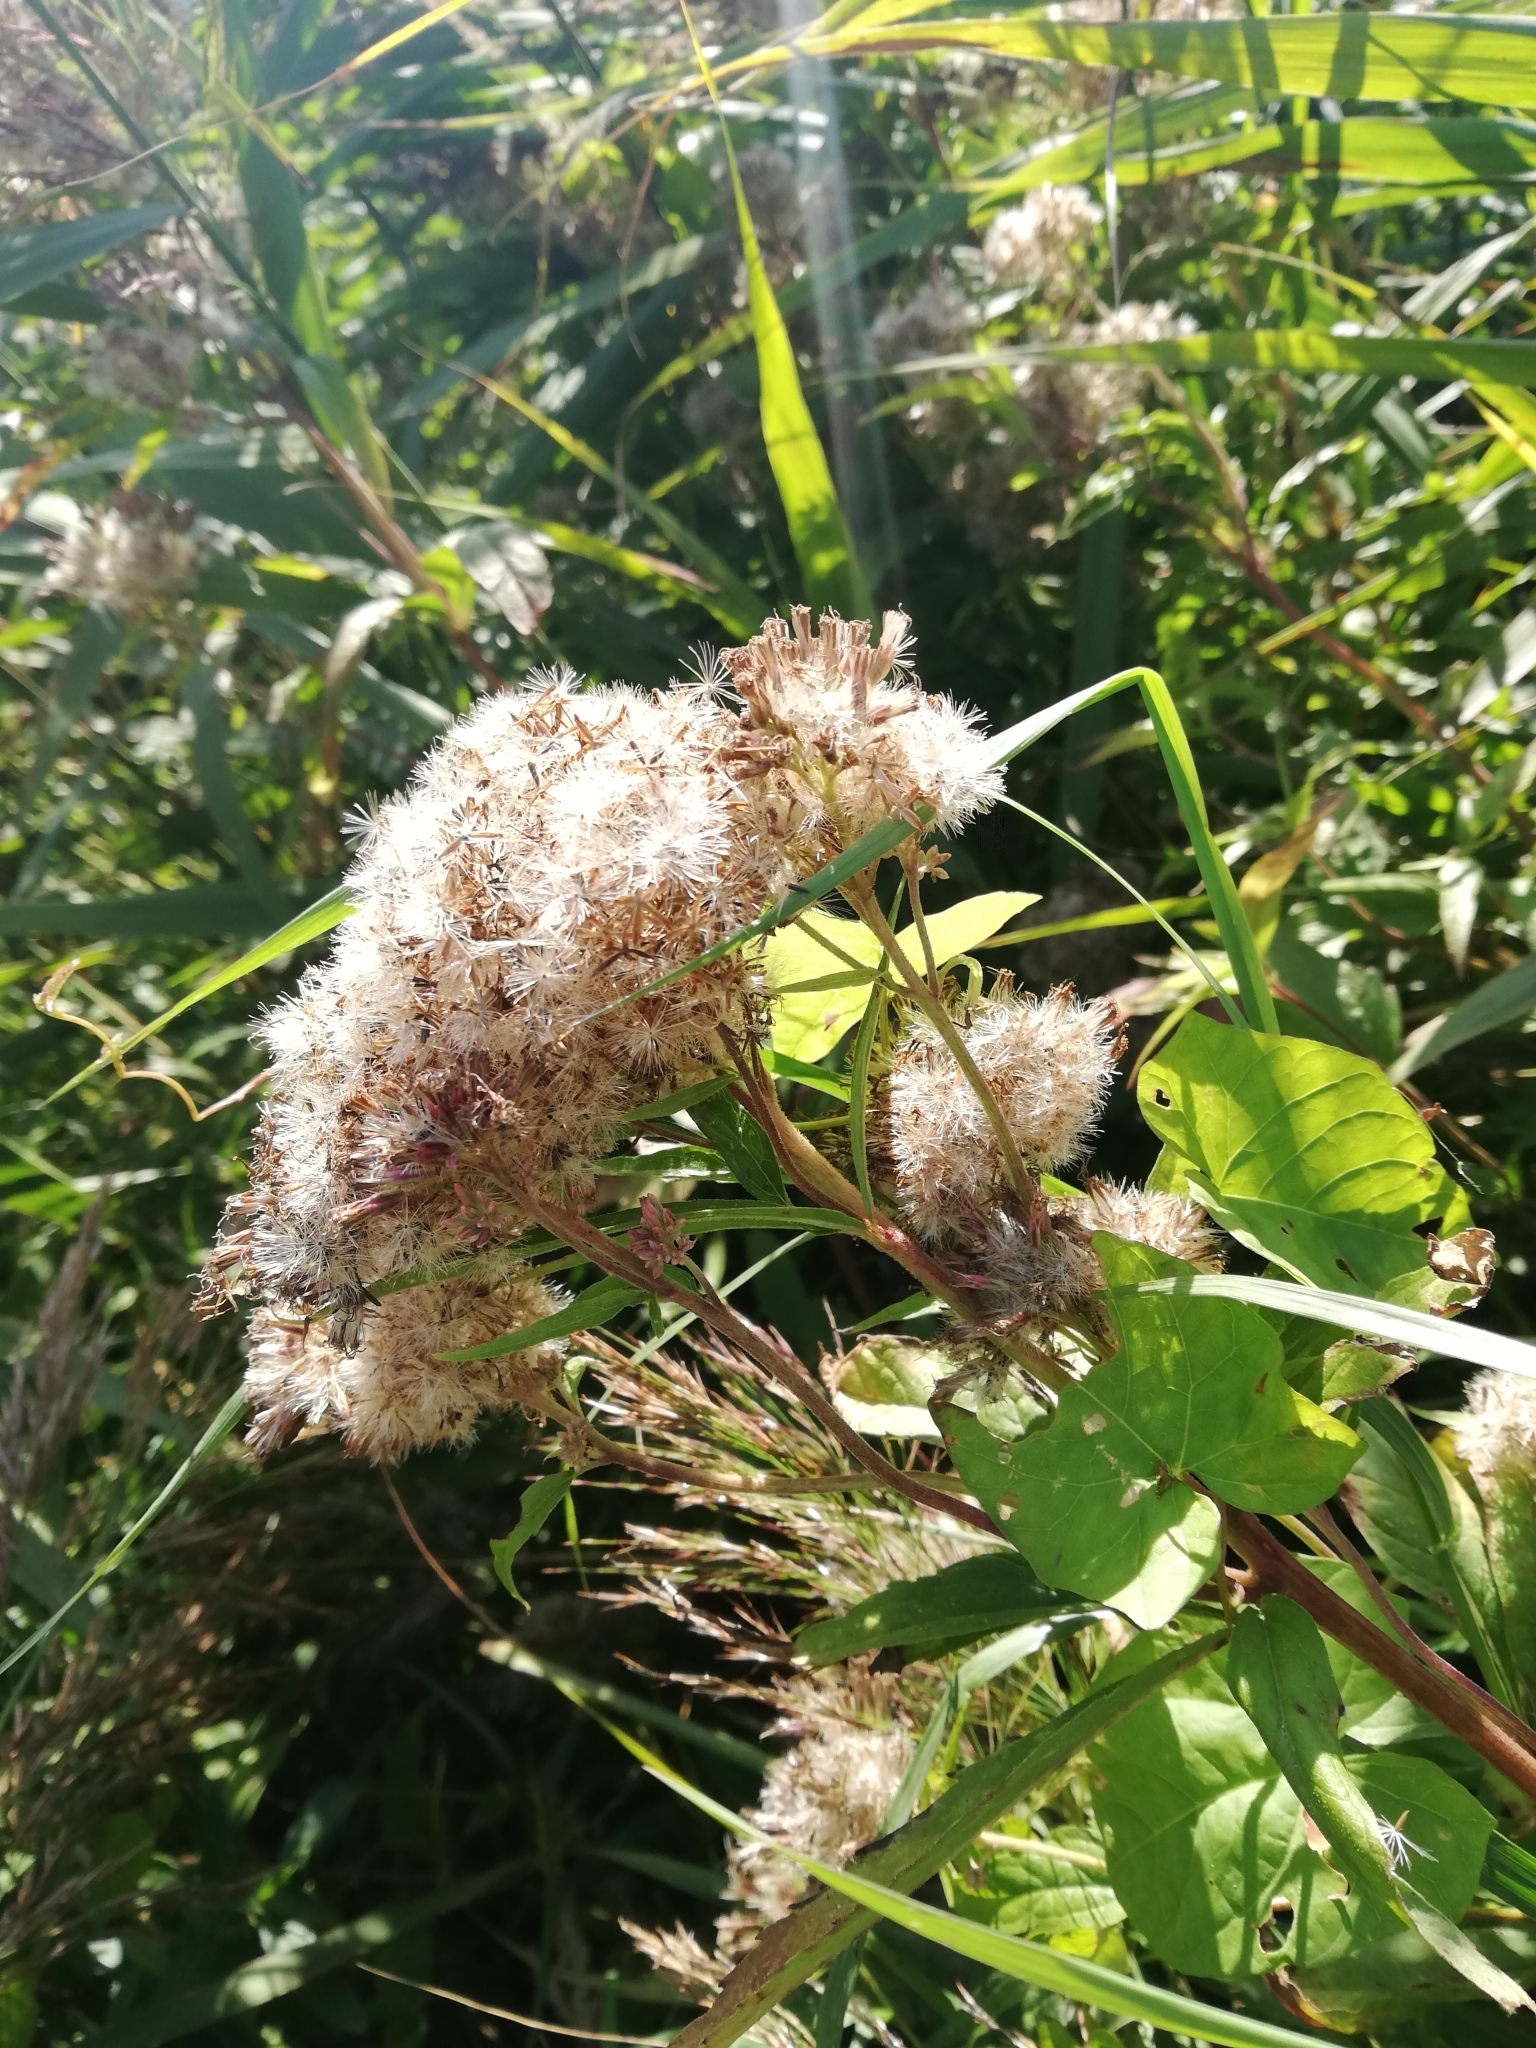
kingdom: Plantae
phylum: Tracheophyta
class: Magnoliopsida
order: Asterales
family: Asteraceae
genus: Eupatorium
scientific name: Eupatorium cannabinum
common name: Hemp-agrimony
